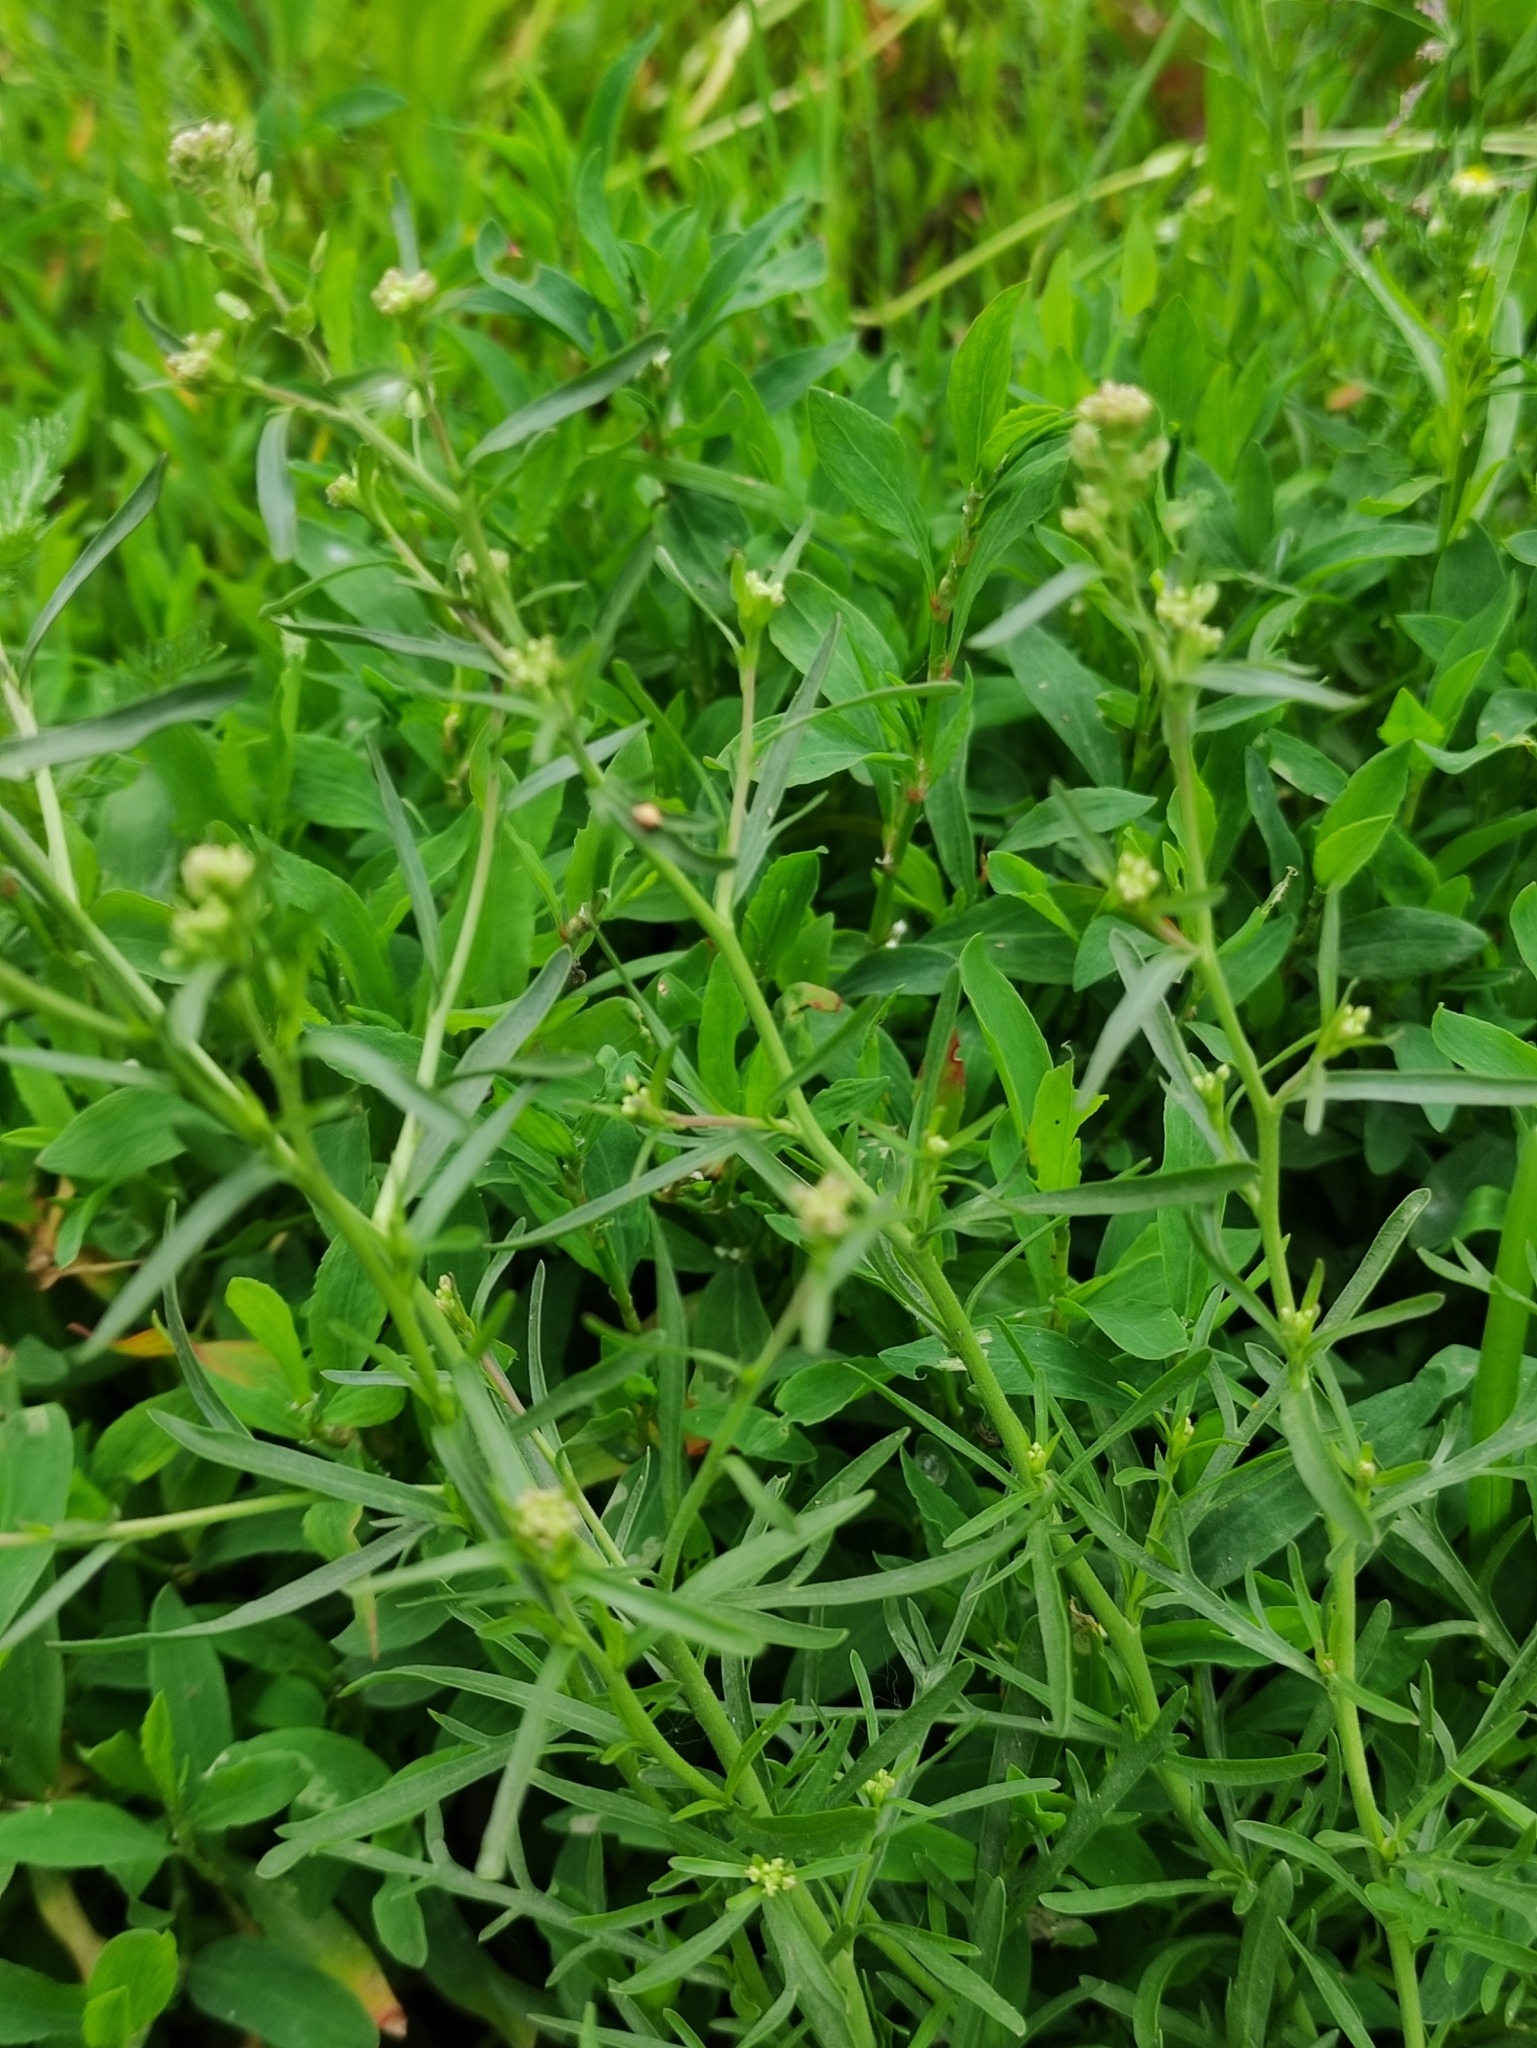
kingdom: Plantae
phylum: Tracheophyta
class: Magnoliopsida
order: Brassicales
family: Brassicaceae
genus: Lepidium
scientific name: Lepidium ruderale
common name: Narrow-leaved pepperwort
